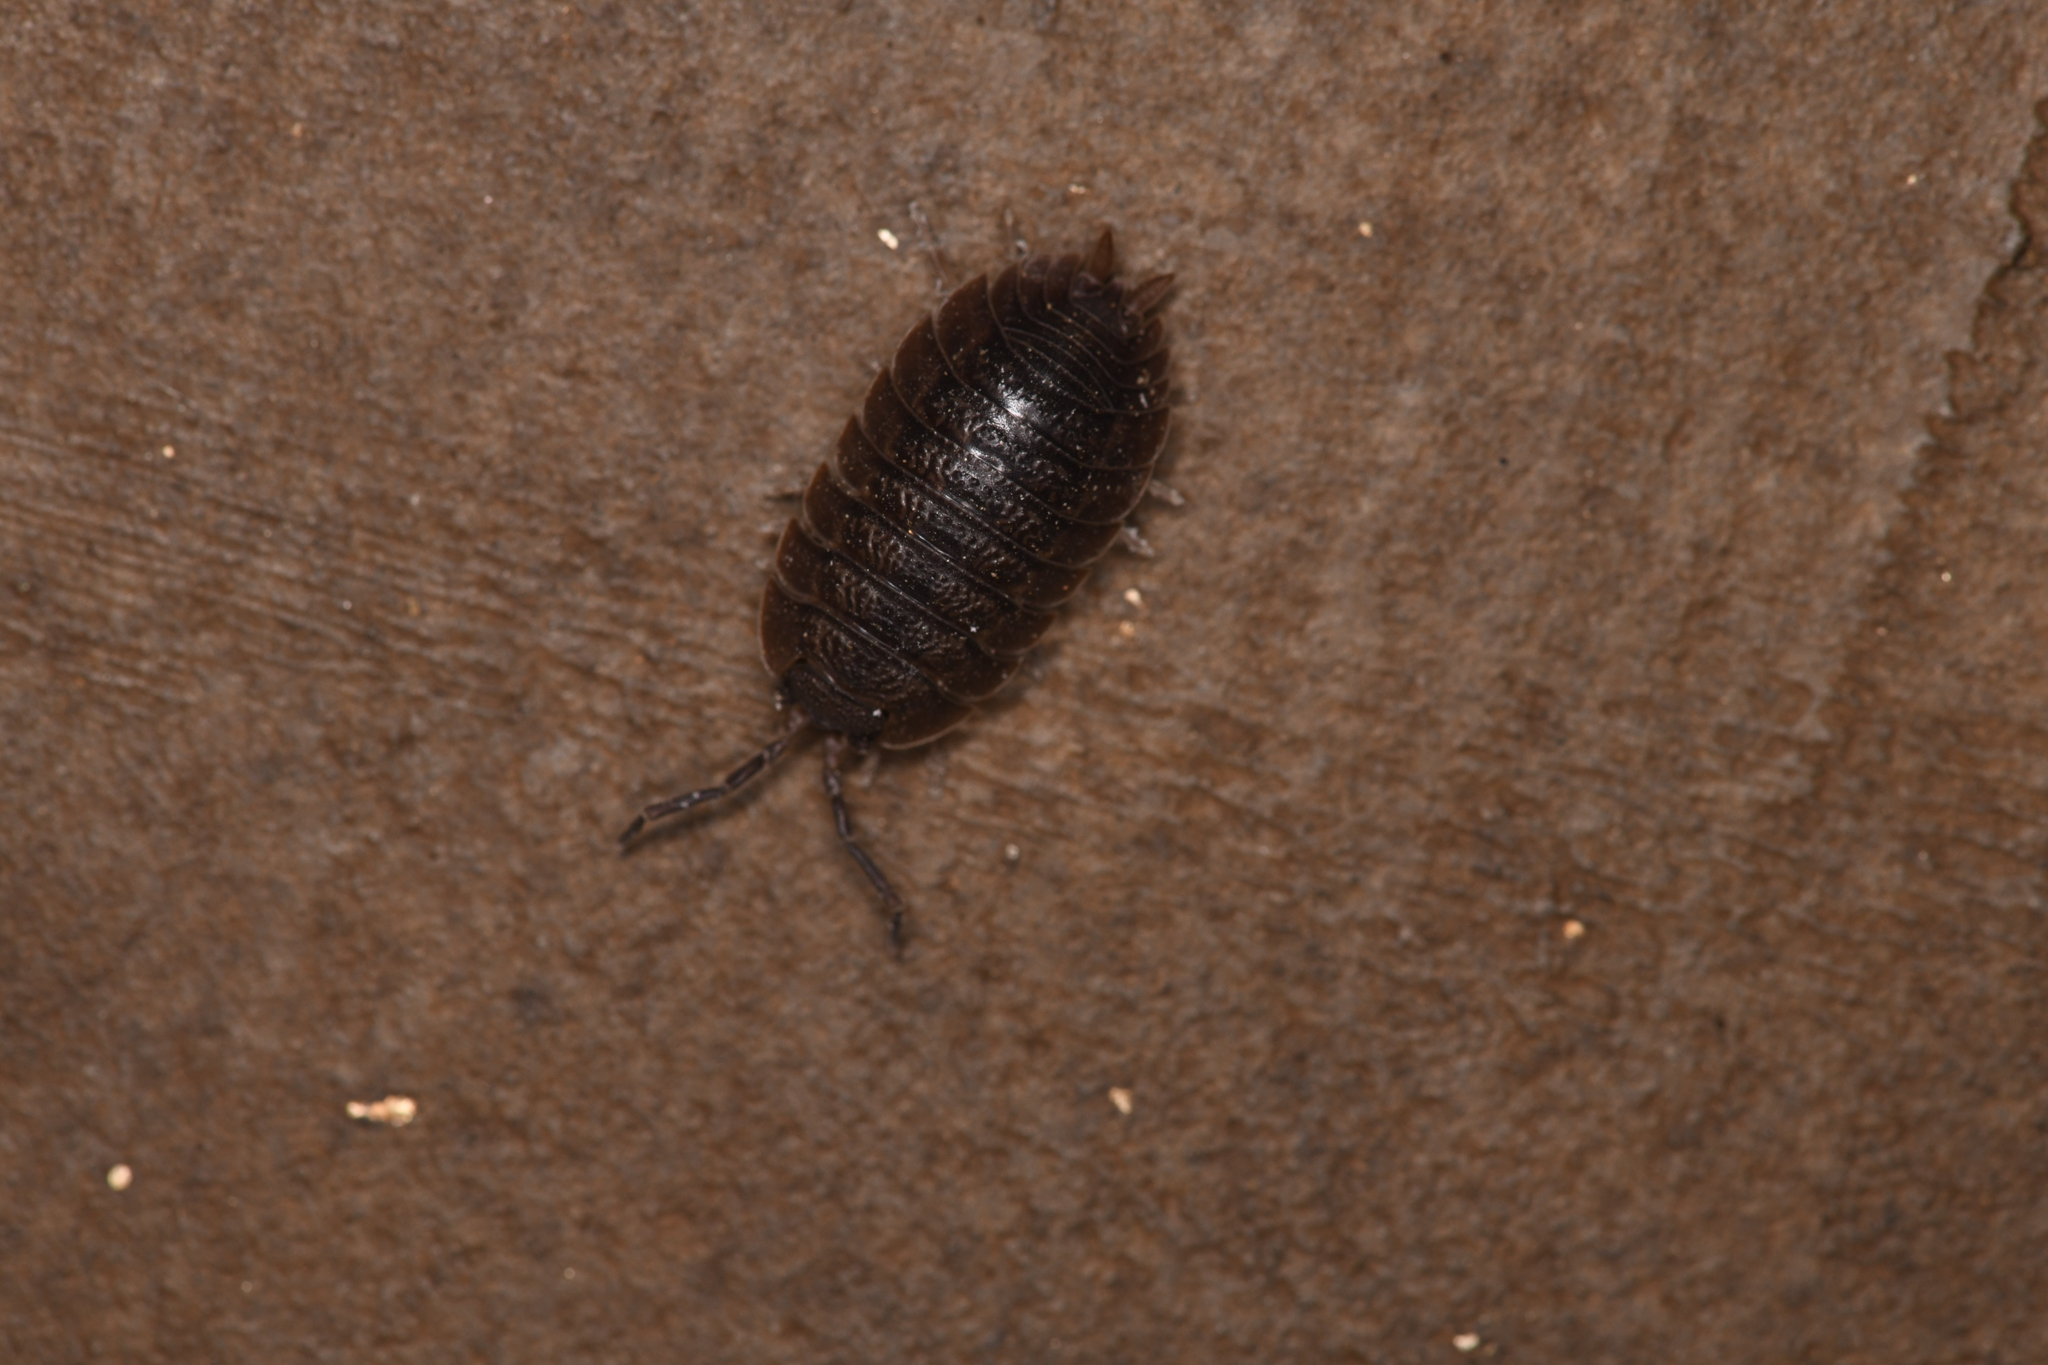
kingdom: Animalia
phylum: Arthropoda
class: Malacostraca
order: Isopoda
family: Porcellionidae
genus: Porcellio
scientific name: Porcellio dilatatus
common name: Isopod
